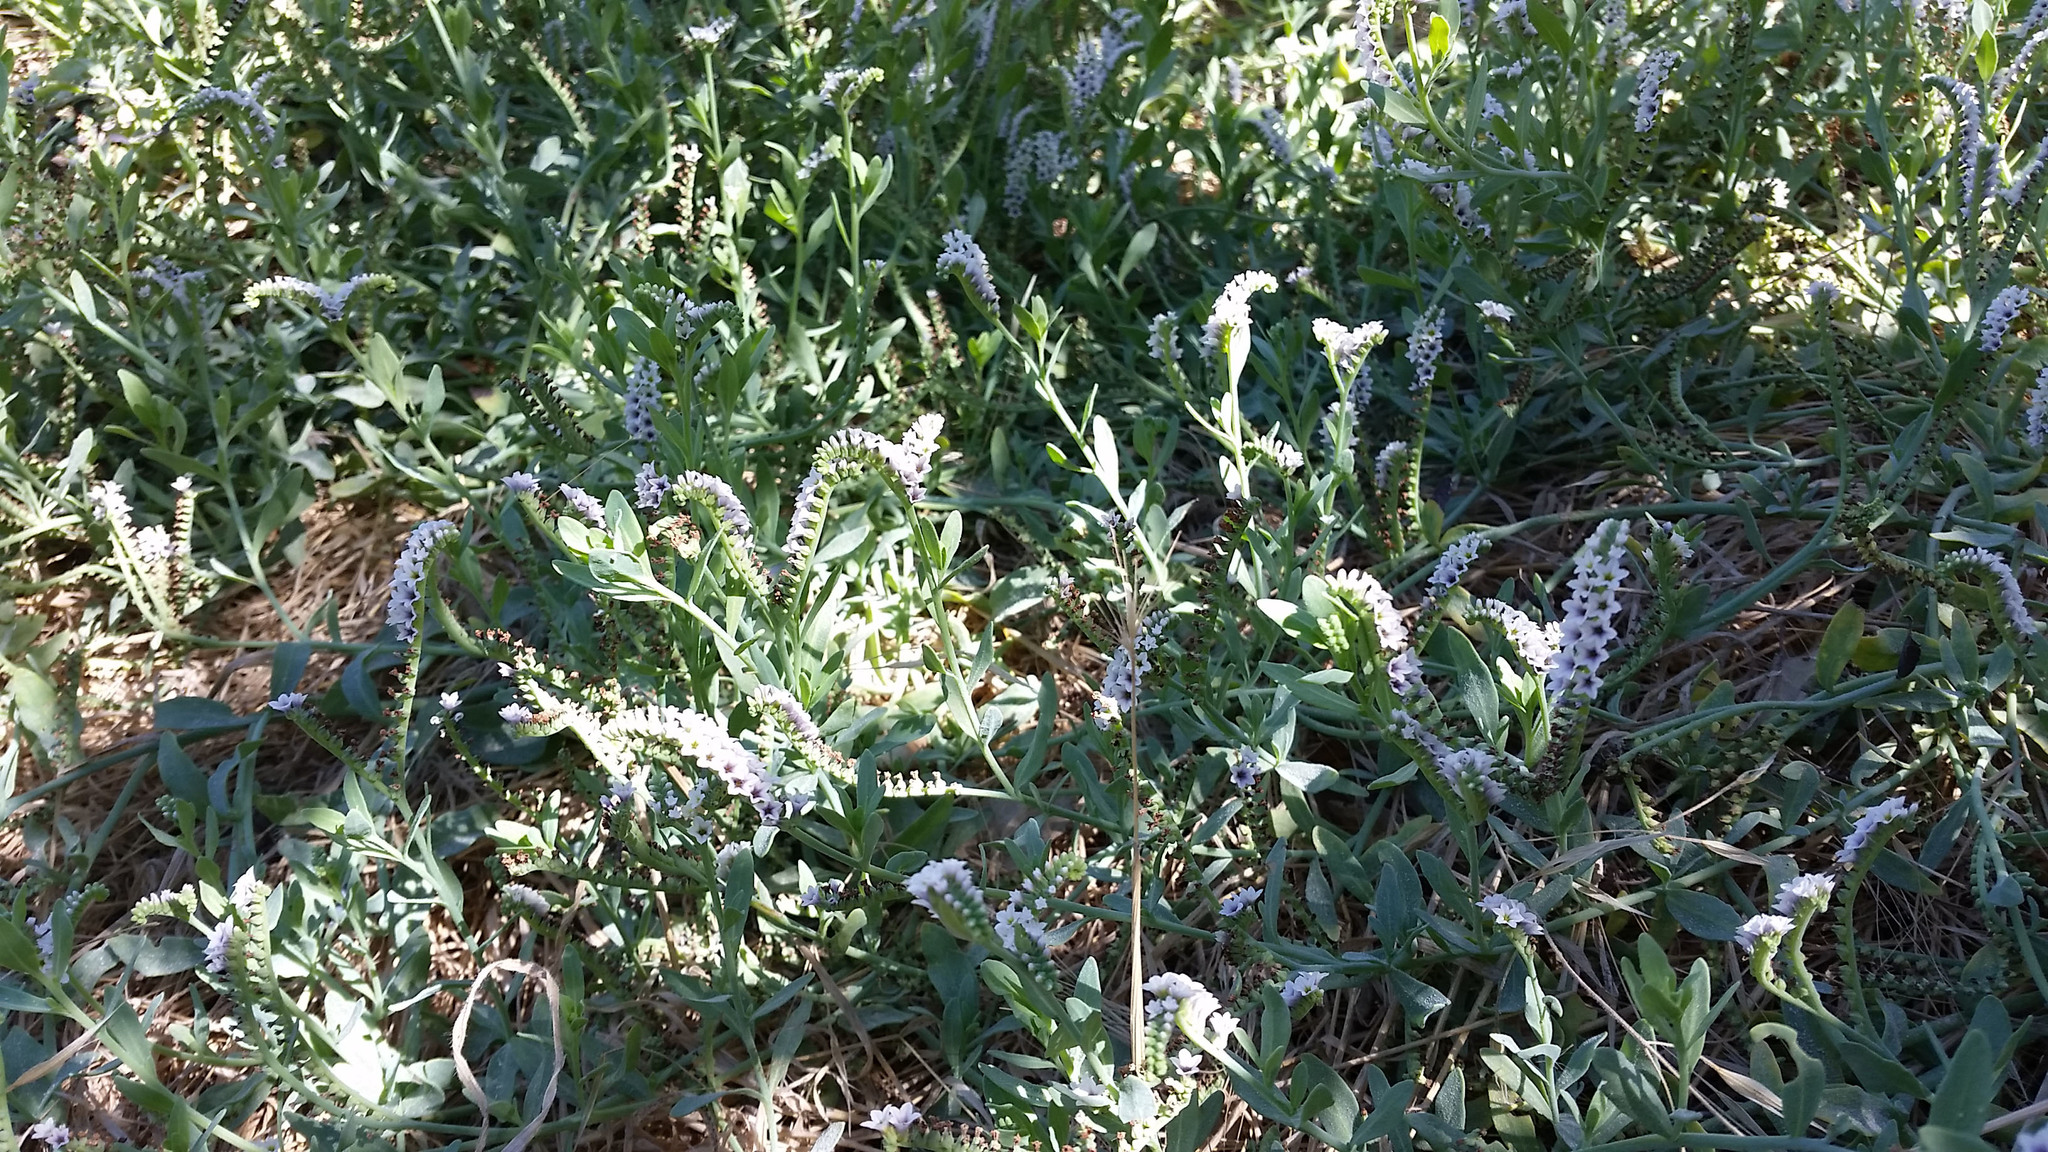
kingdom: Plantae
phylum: Tracheophyta
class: Magnoliopsida
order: Boraginales
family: Heliotropiaceae
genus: Heliotropium
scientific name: Heliotropium curassavicum
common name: Seaside heliotrope
